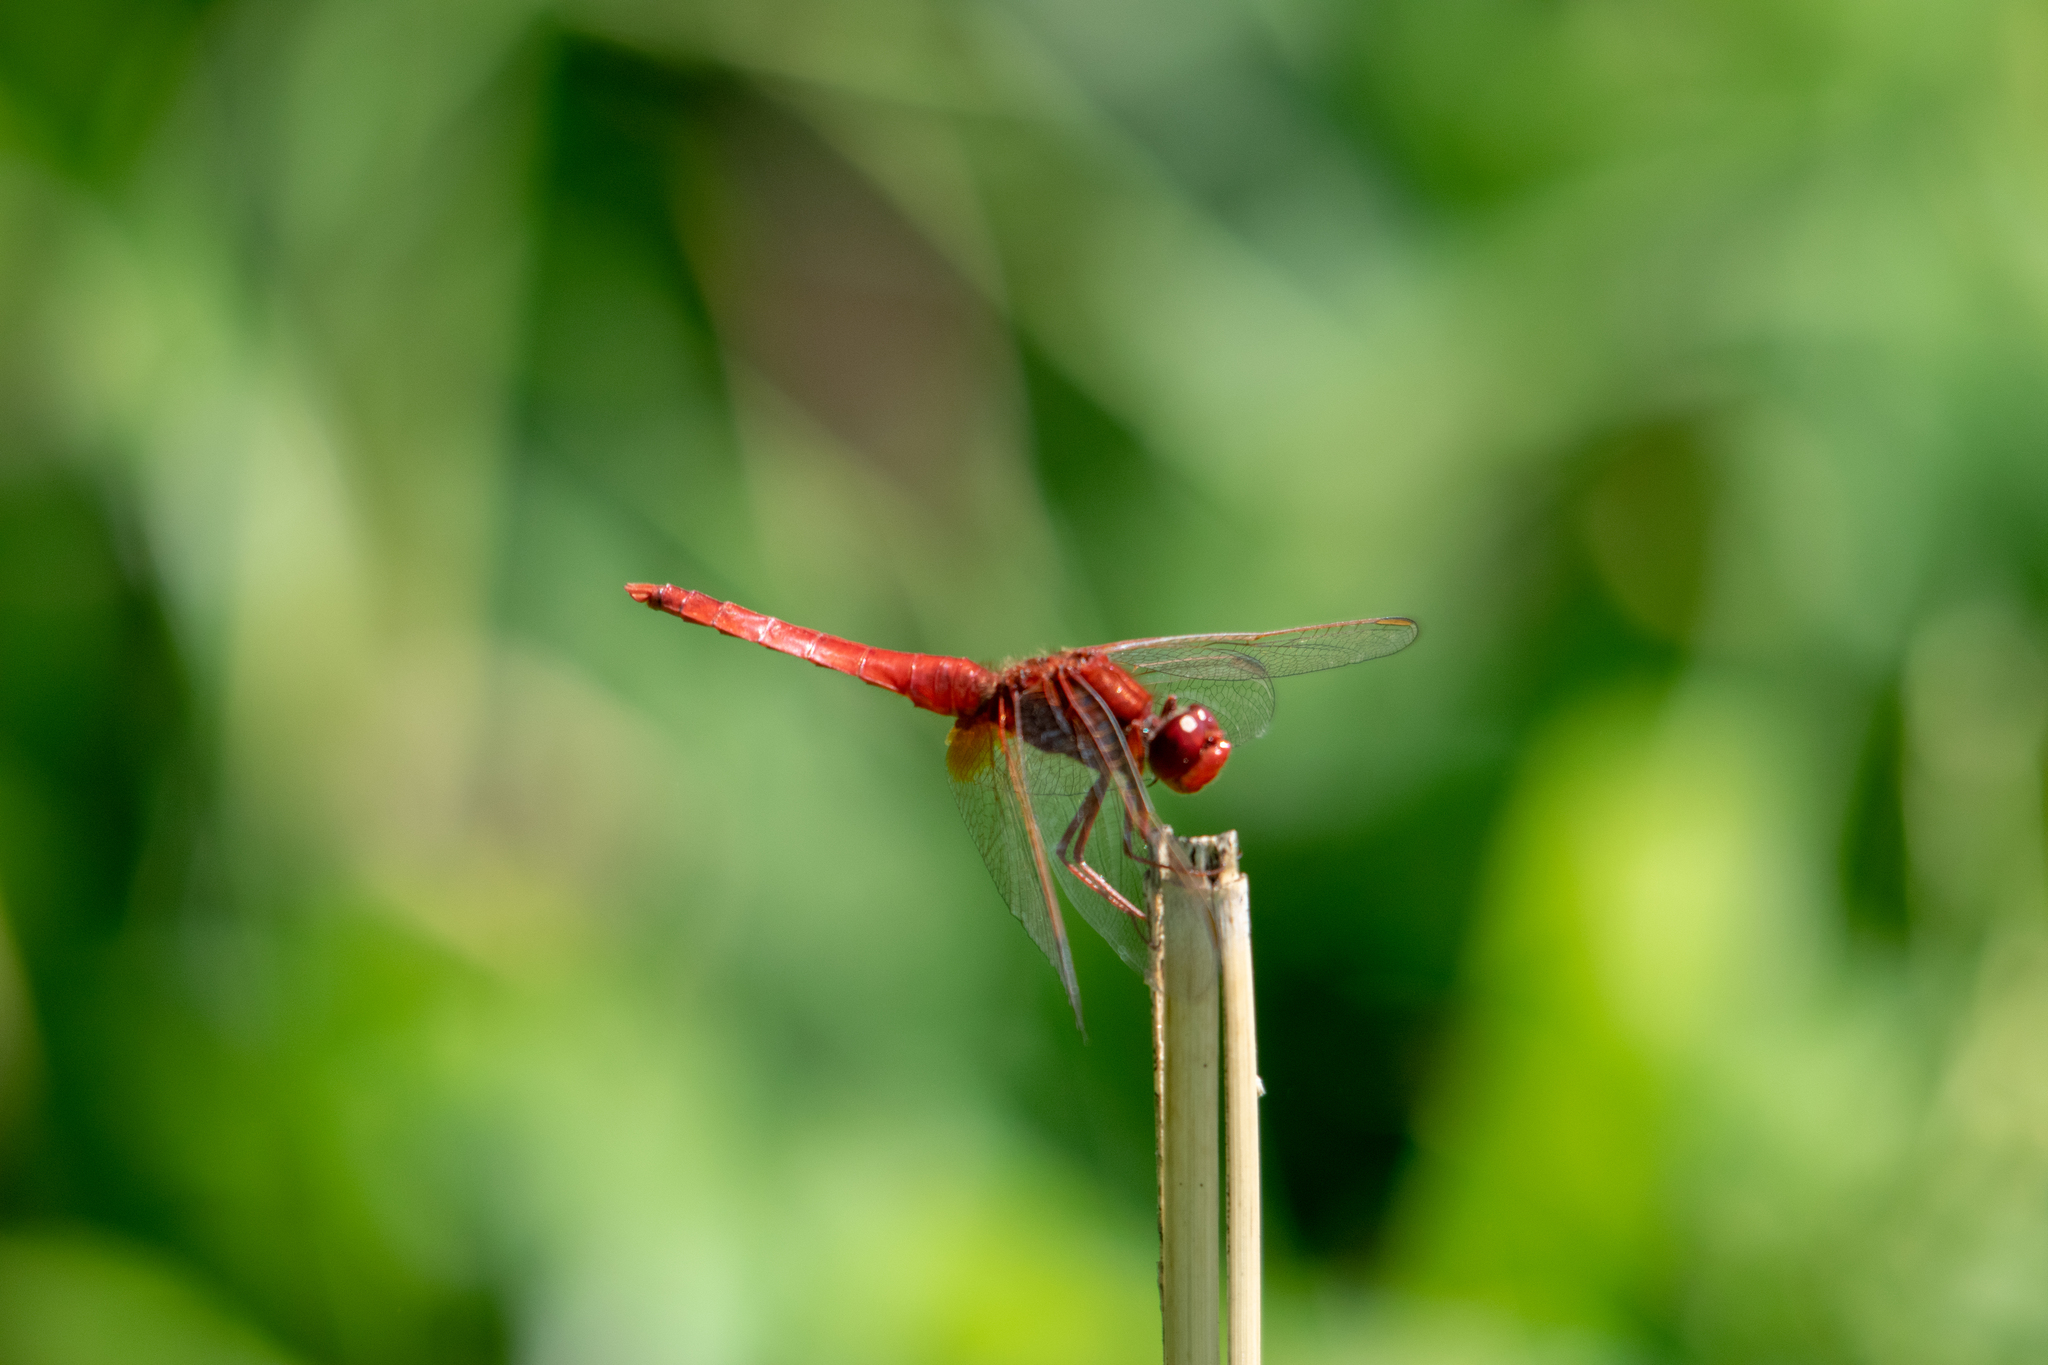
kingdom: Animalia
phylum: Arthropoda
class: Insecta
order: Odonata
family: Libellulidae
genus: Crocothemis
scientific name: Crocothemis erythraea
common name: Scarlet dragonfly
